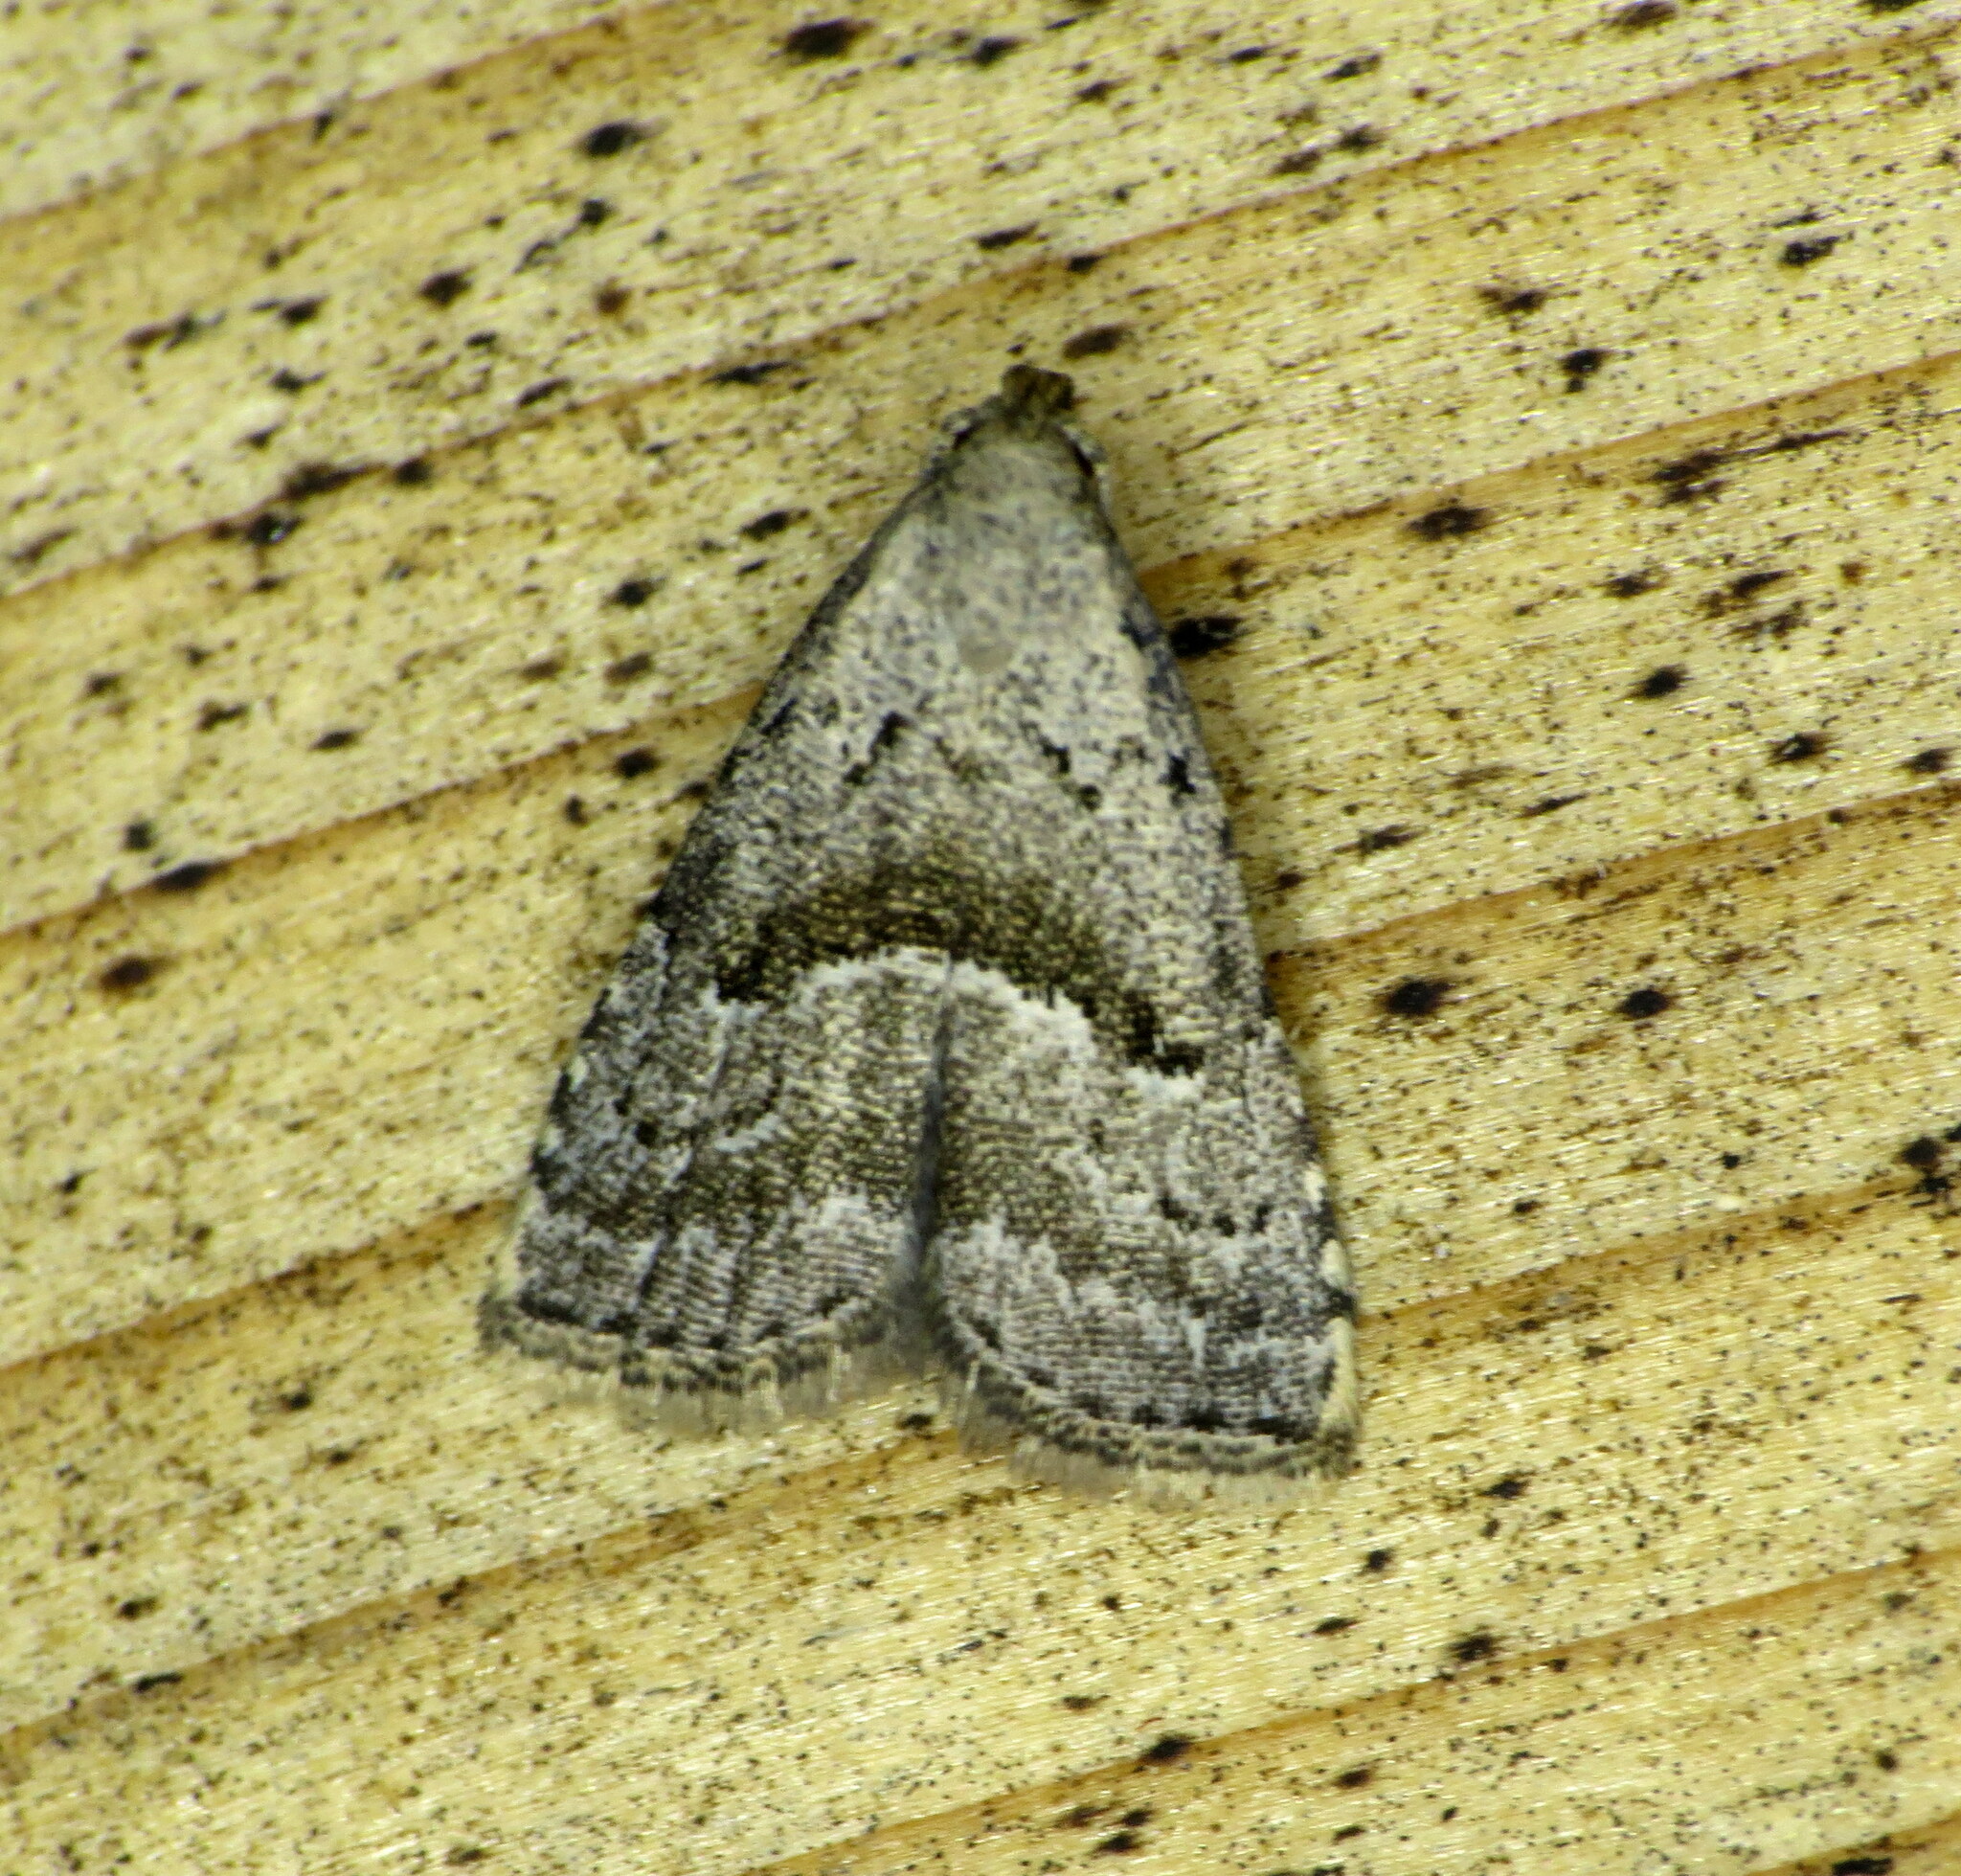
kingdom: Animalia
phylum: Arthropoda
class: Insecta
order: Lepidoptera
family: Erebidae
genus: Hypenodes
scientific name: Hypenodes caducus
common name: Large hypenodes moth
